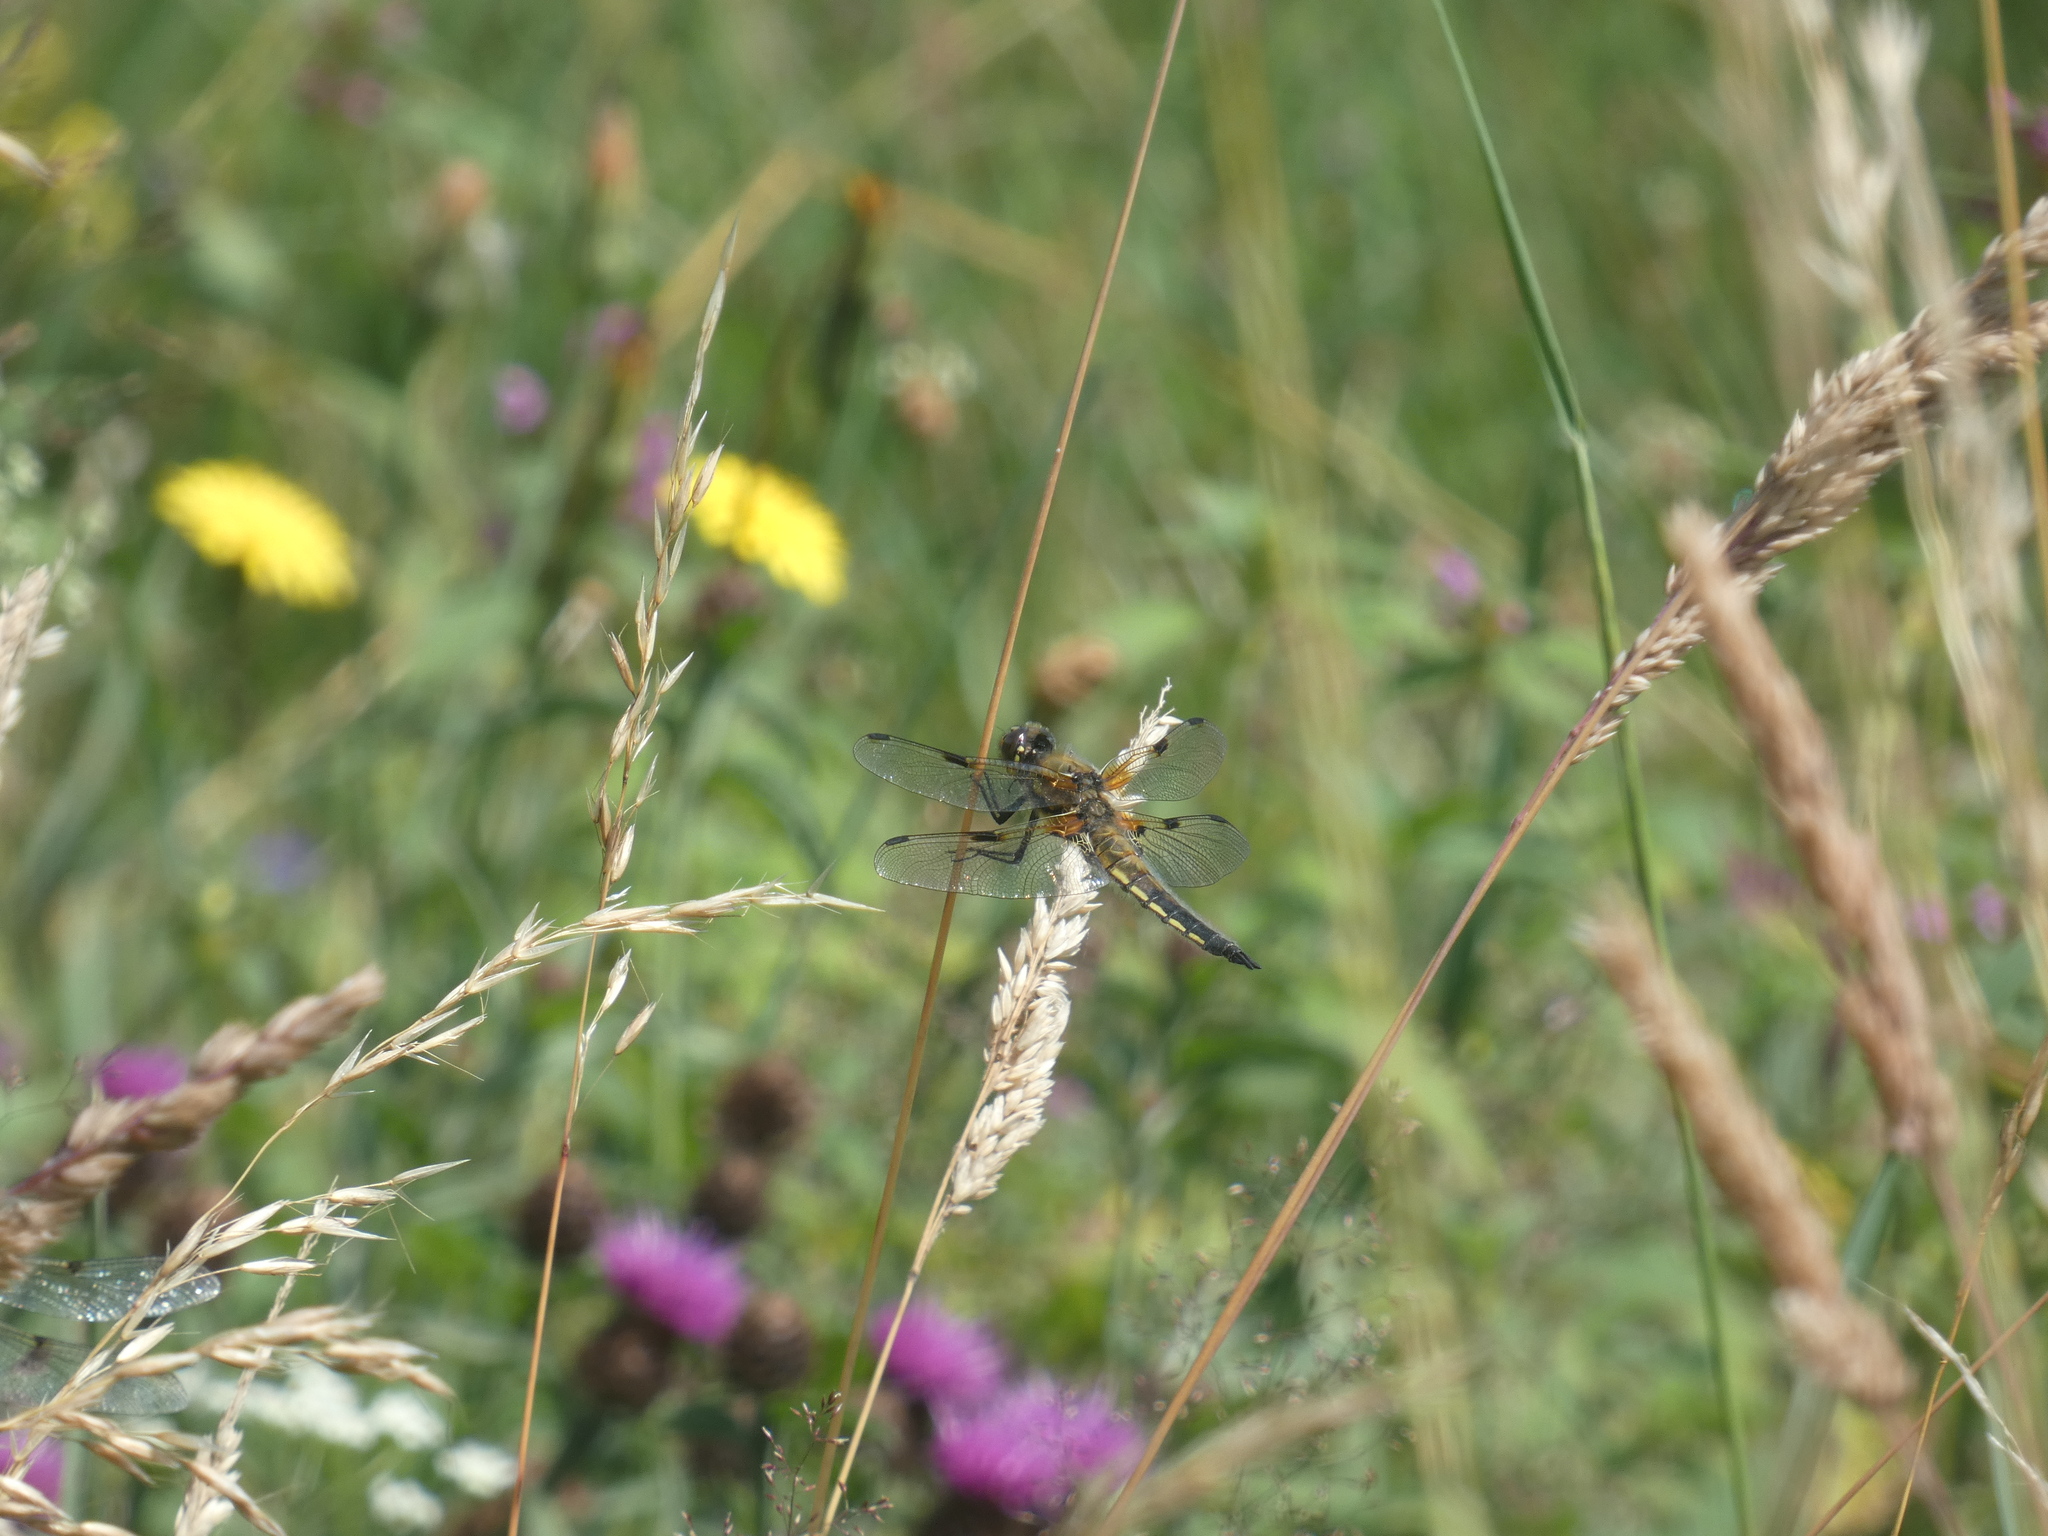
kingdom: Animalia
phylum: Arthropoda
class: Insecta
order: Odonata
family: Libellulidae
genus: Libellula
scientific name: Libellula quadrimaculata
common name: Four-spotted chaser
